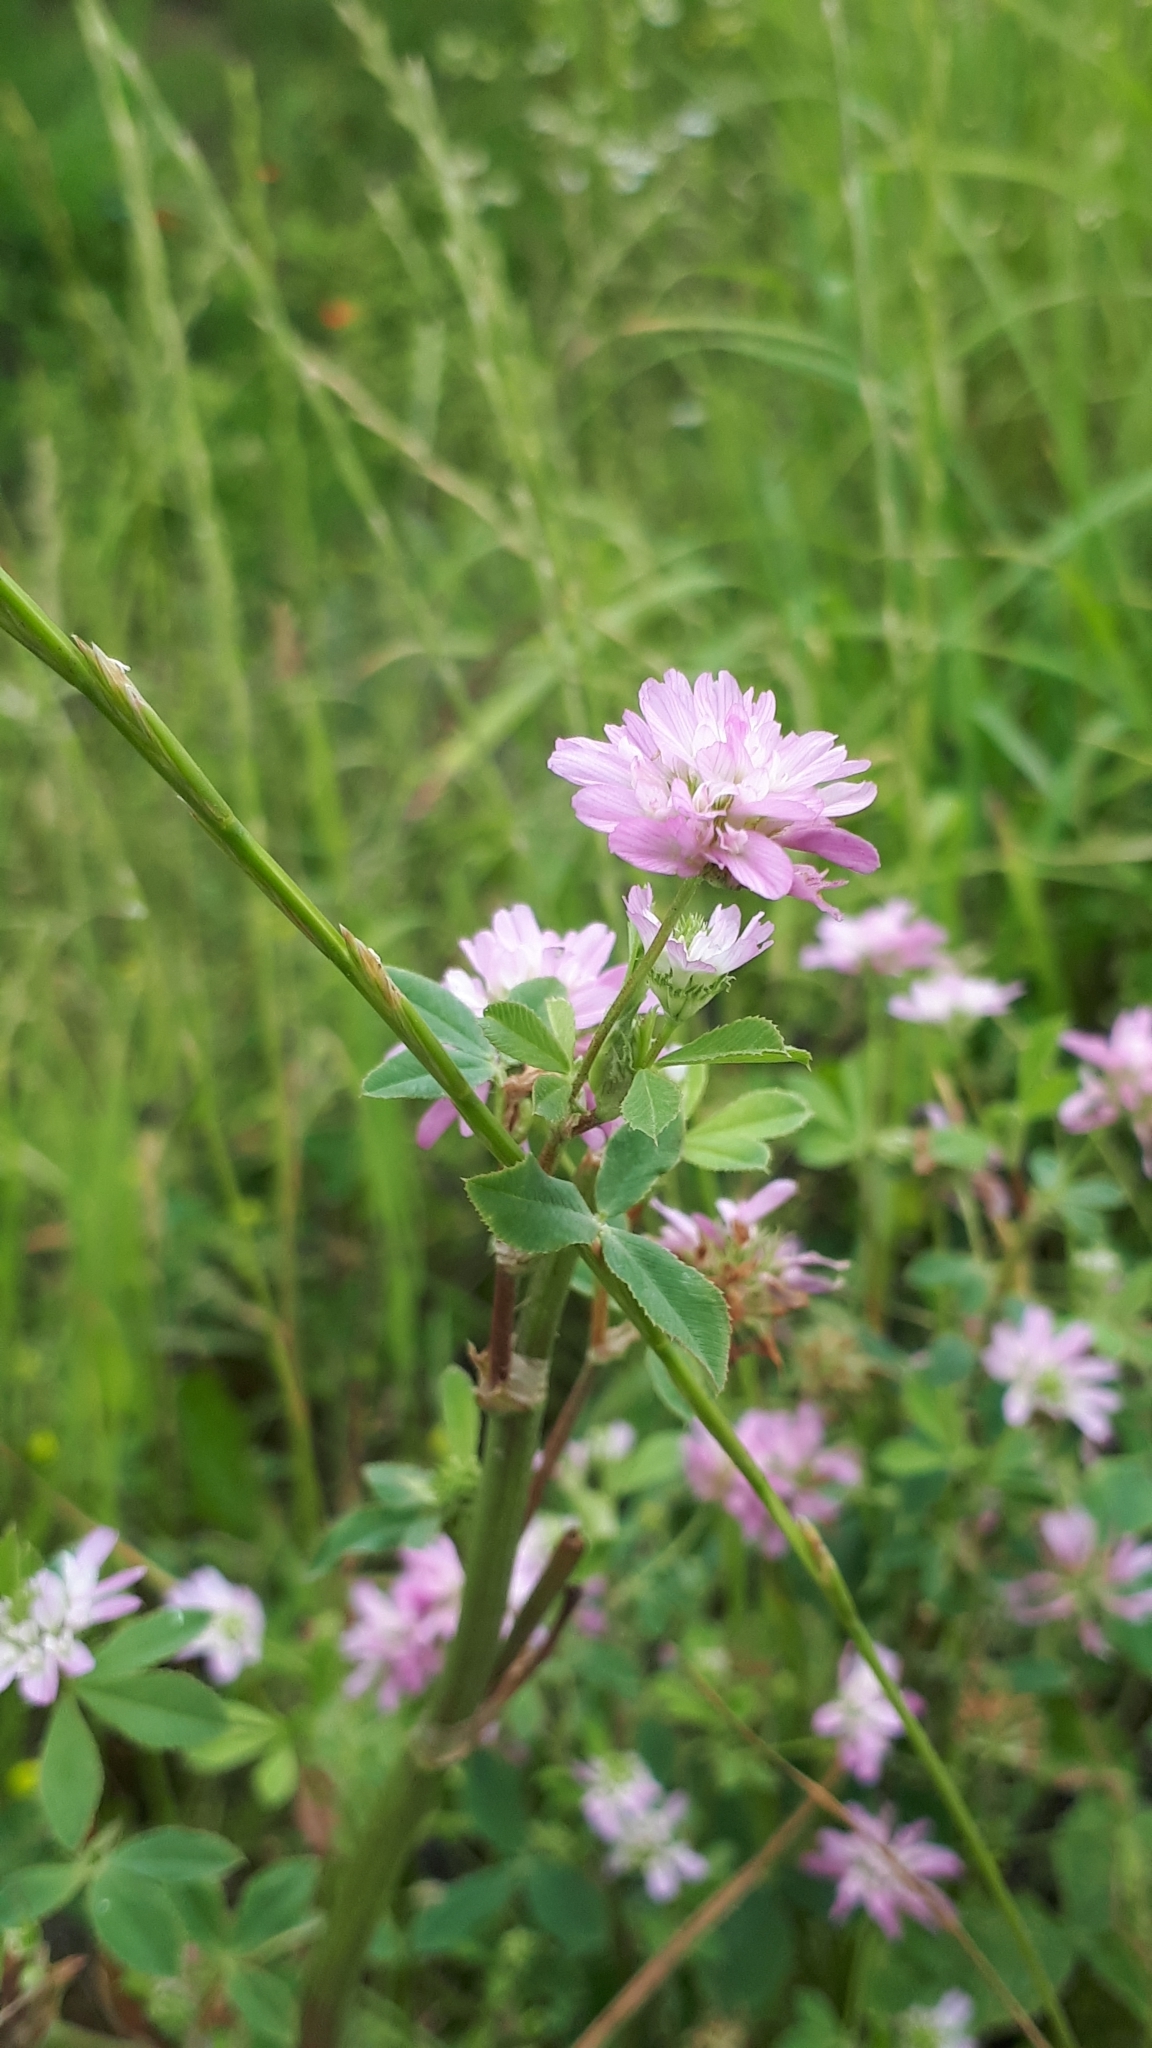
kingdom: Plantae
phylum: Tracheophyta
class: Magnoliopsida
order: Fabales
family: Fabaceae
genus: Trifolium
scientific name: Trifolium resupinatum
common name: Reversed clover
